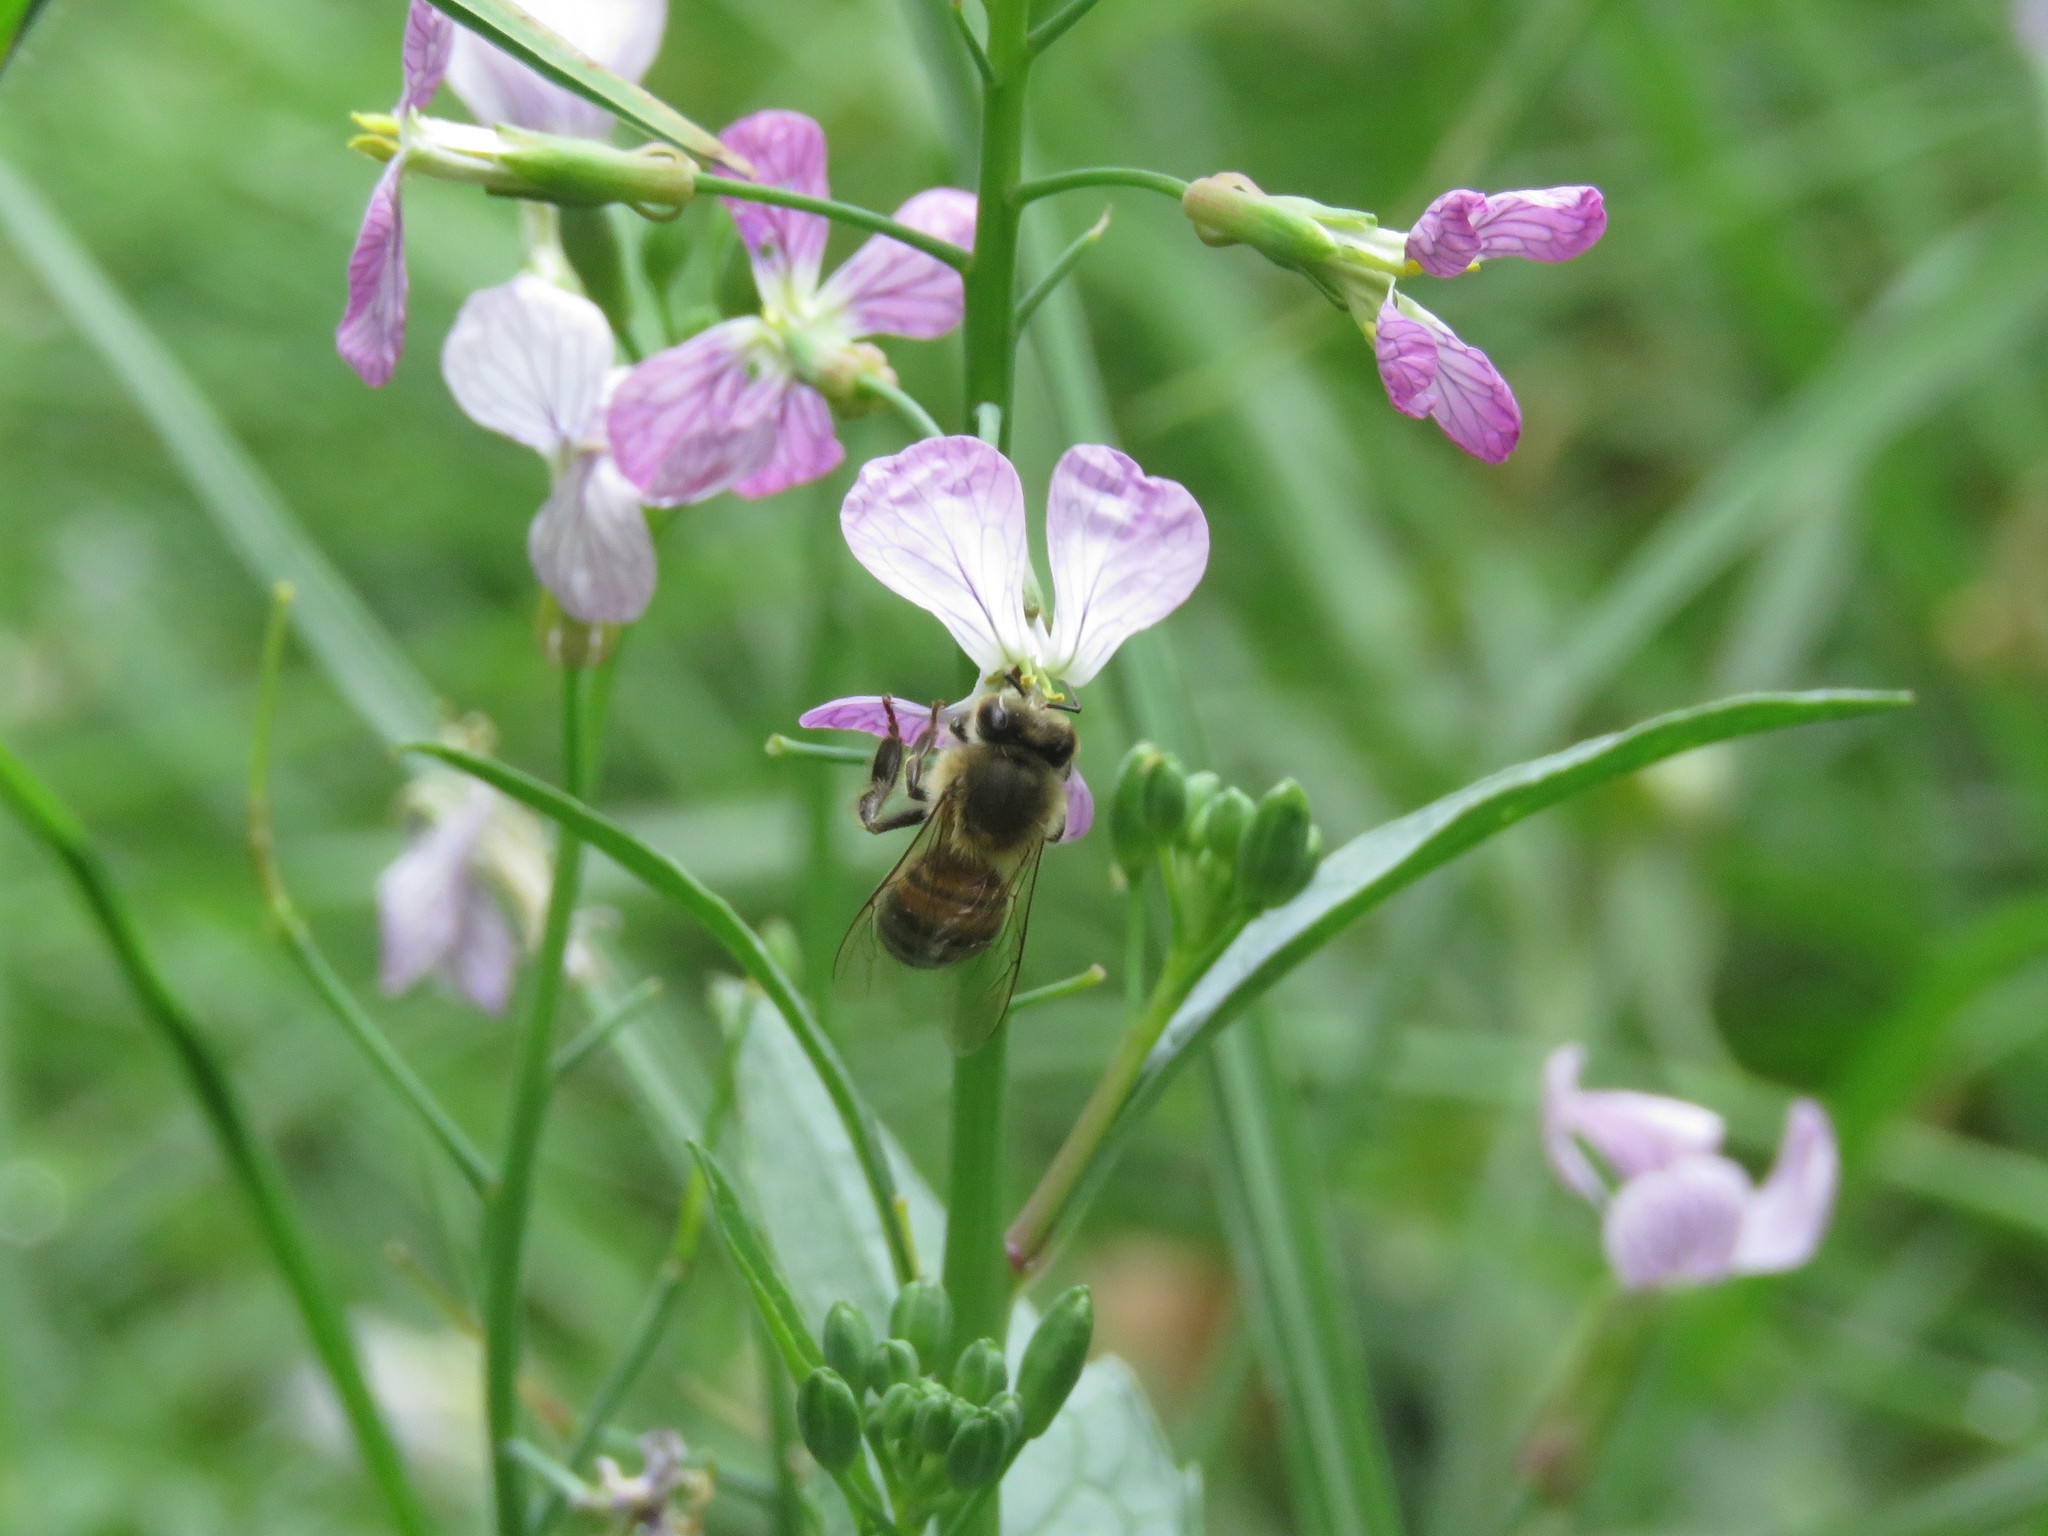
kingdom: Animalia
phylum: Arthropoda
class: Insecta
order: Hymenoptera
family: Apidae
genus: Apis
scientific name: Apis mellifera
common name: Honey bee
